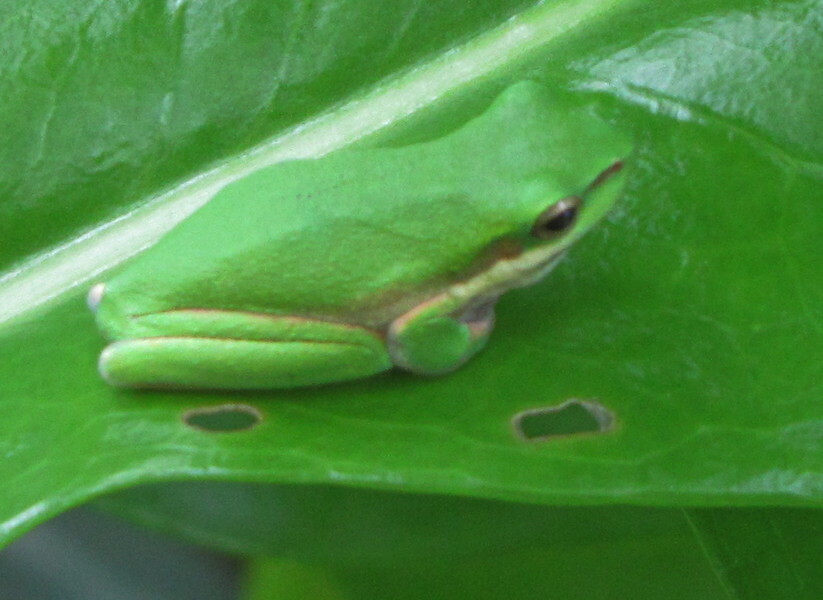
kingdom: Animalia
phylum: Chordata
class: Amphibia
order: Anura
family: Pelodryadidae
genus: Litoria
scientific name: Litoria fallax
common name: Eastern dwarf treefrog
